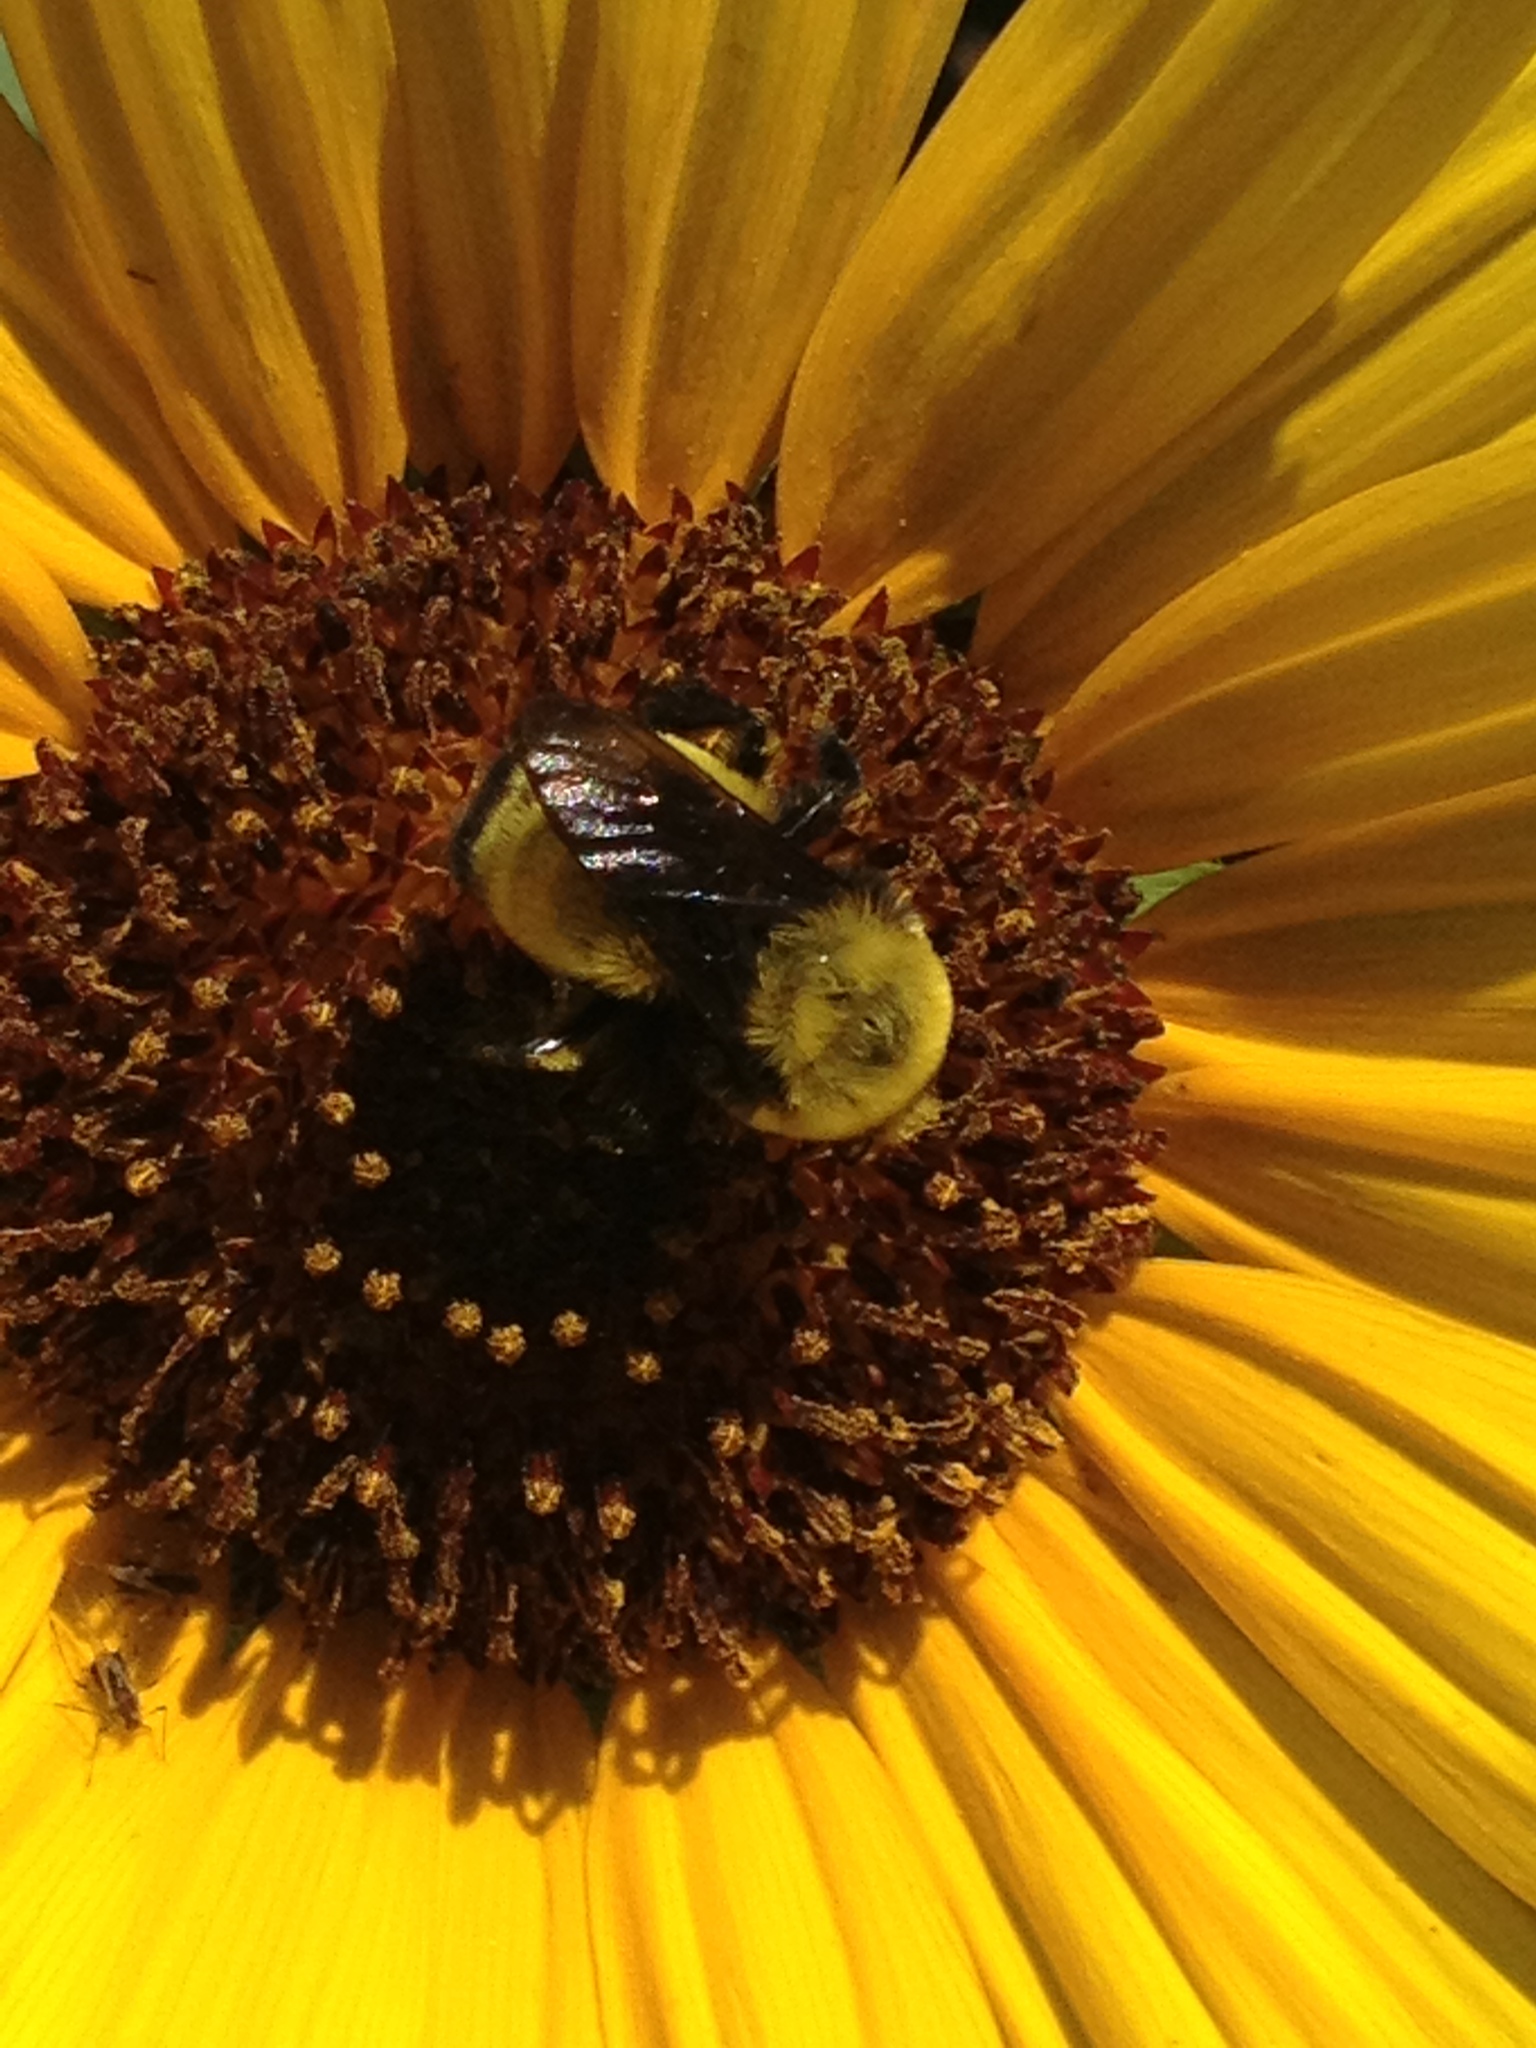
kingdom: Animalia
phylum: Arthropoda
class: Insecta
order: Hymenoptera
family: Apidae
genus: Bombus
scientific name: Bombus morrisoni
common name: Morrison bumble bee
